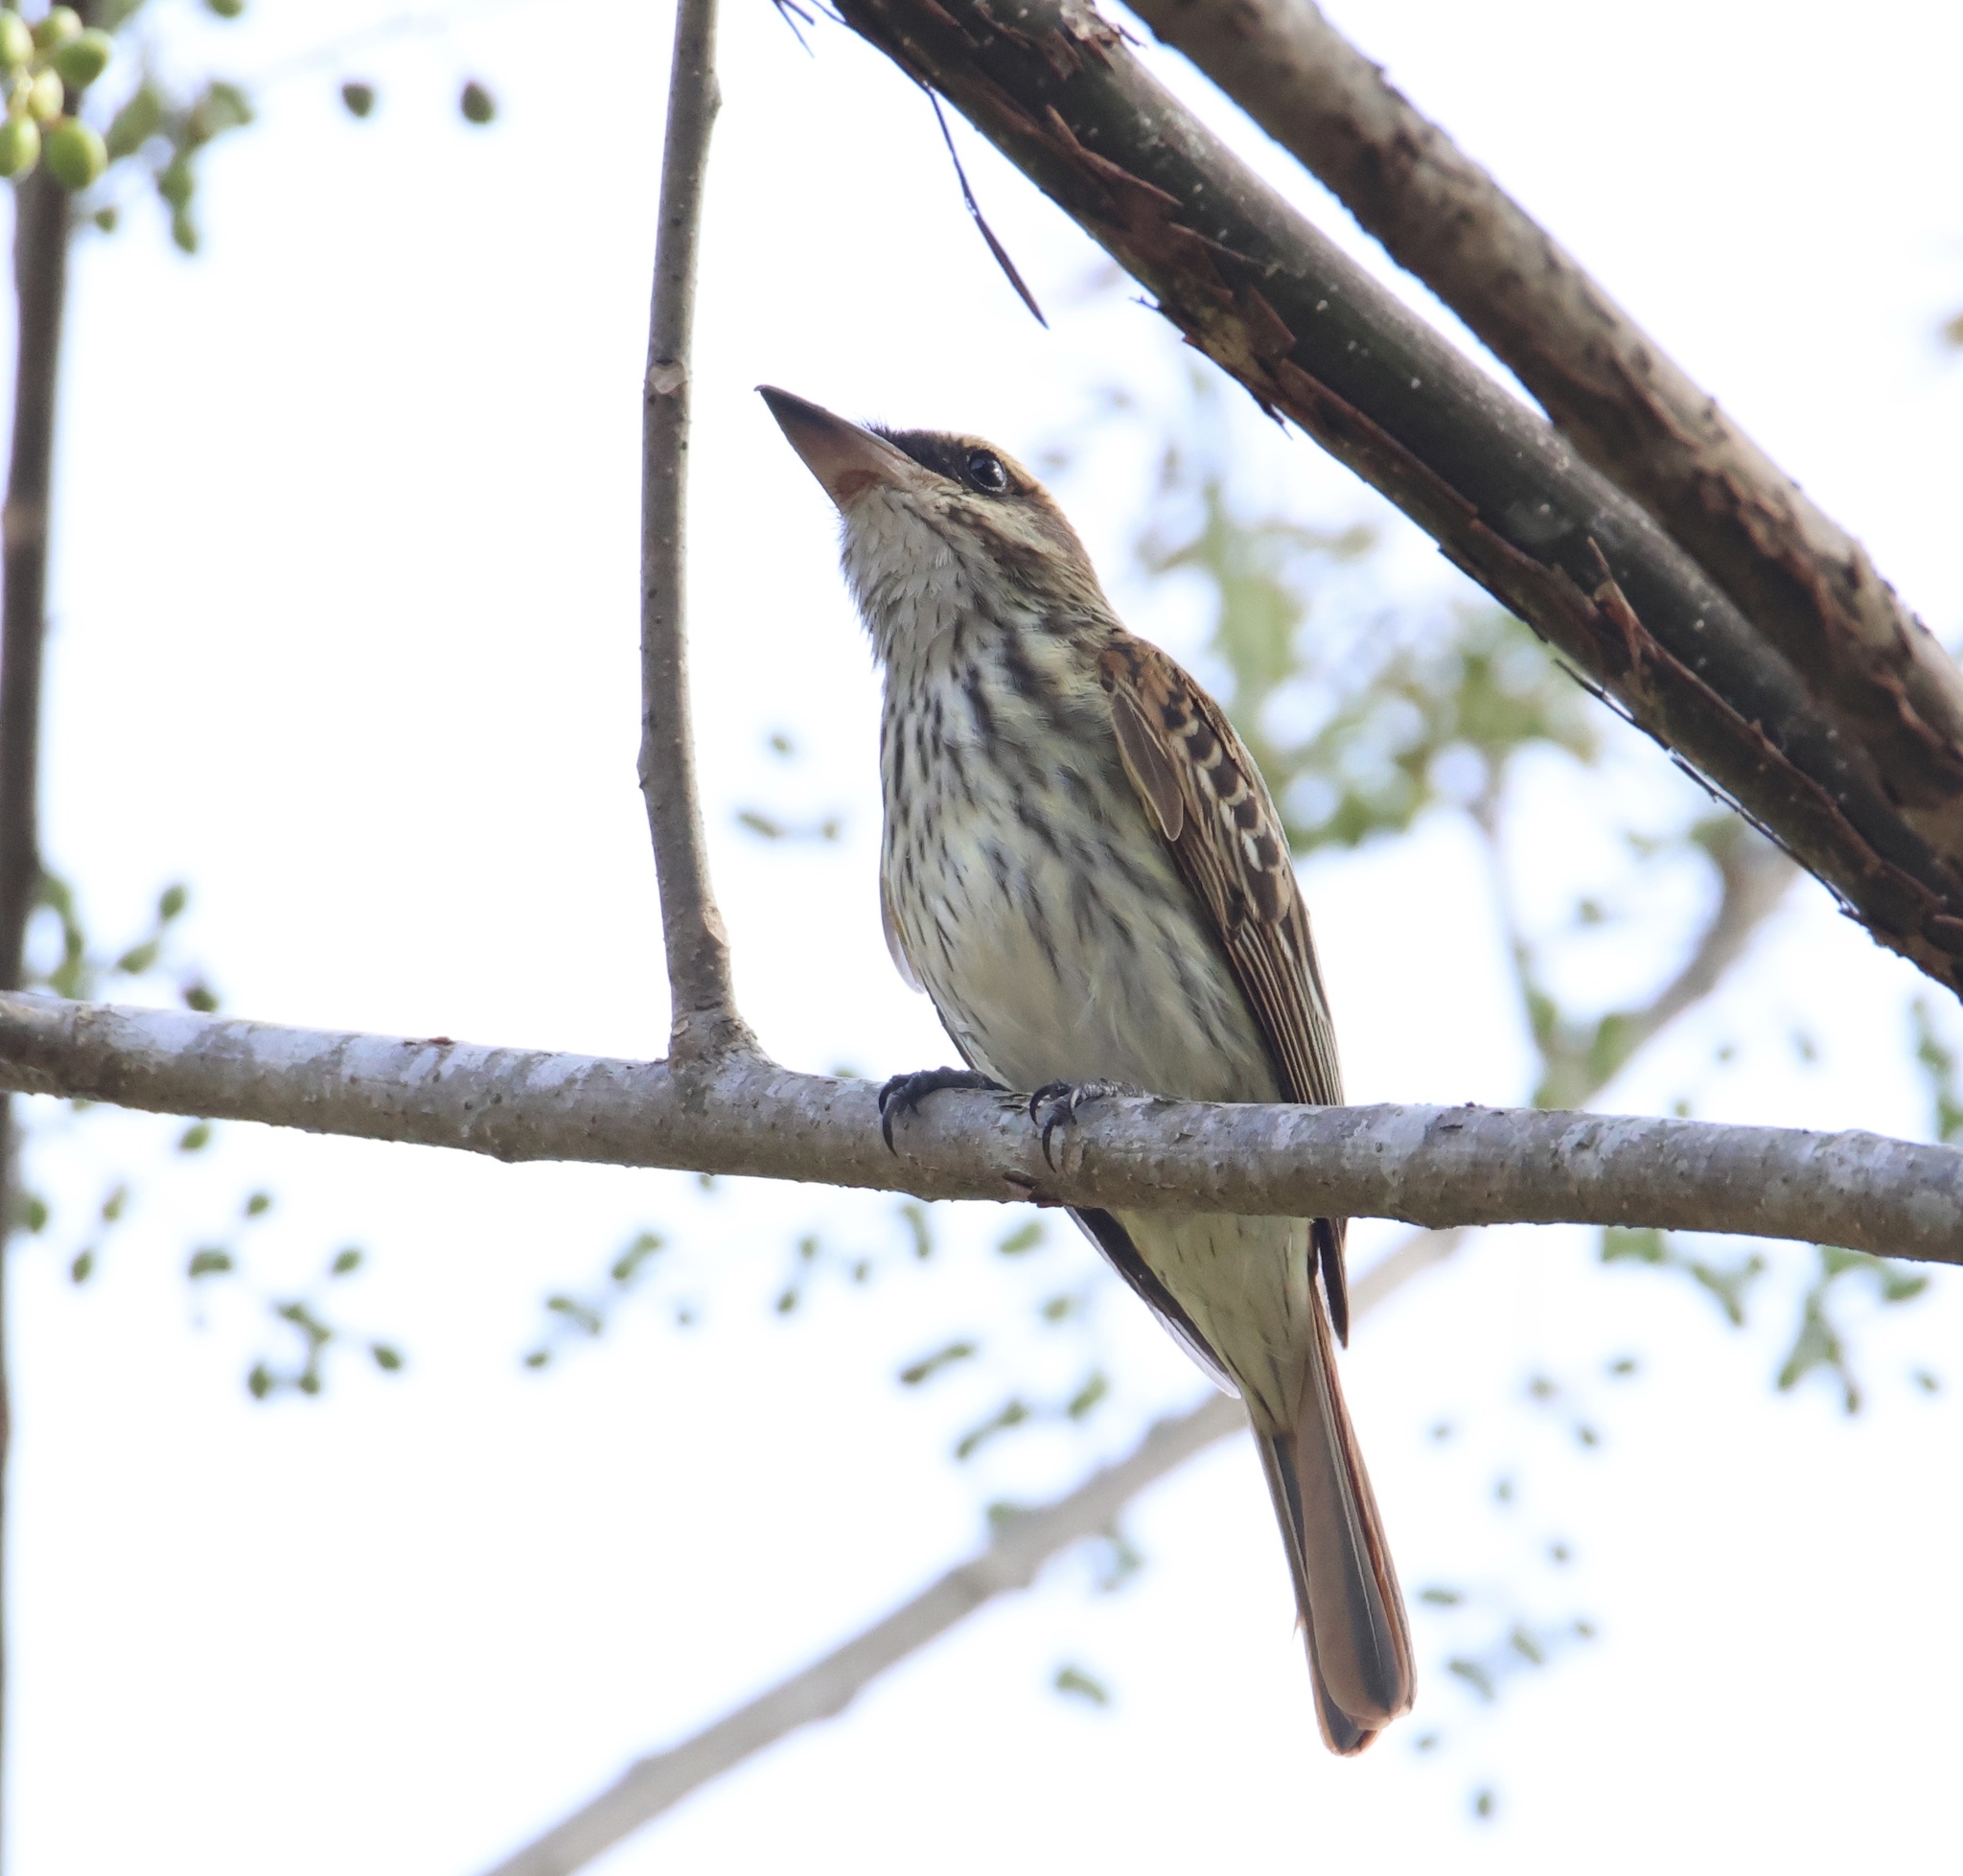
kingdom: Animalia
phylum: Chordata
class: Aves
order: Passeriformes
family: Tyrannidae
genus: Myiodynastes
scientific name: Myiodynastes maculatus
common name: Streaked flycatcher
